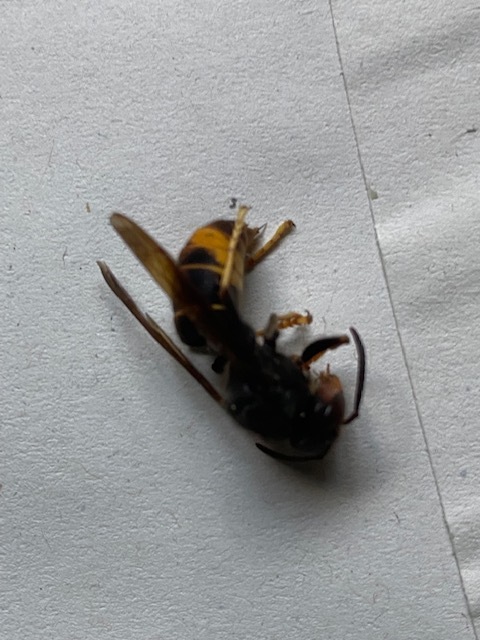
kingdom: Animalia
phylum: Arthropoda
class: Insecta
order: Hymenoptera
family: Vespidae
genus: Vespa
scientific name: Vespa velutina
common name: Asian hornet
